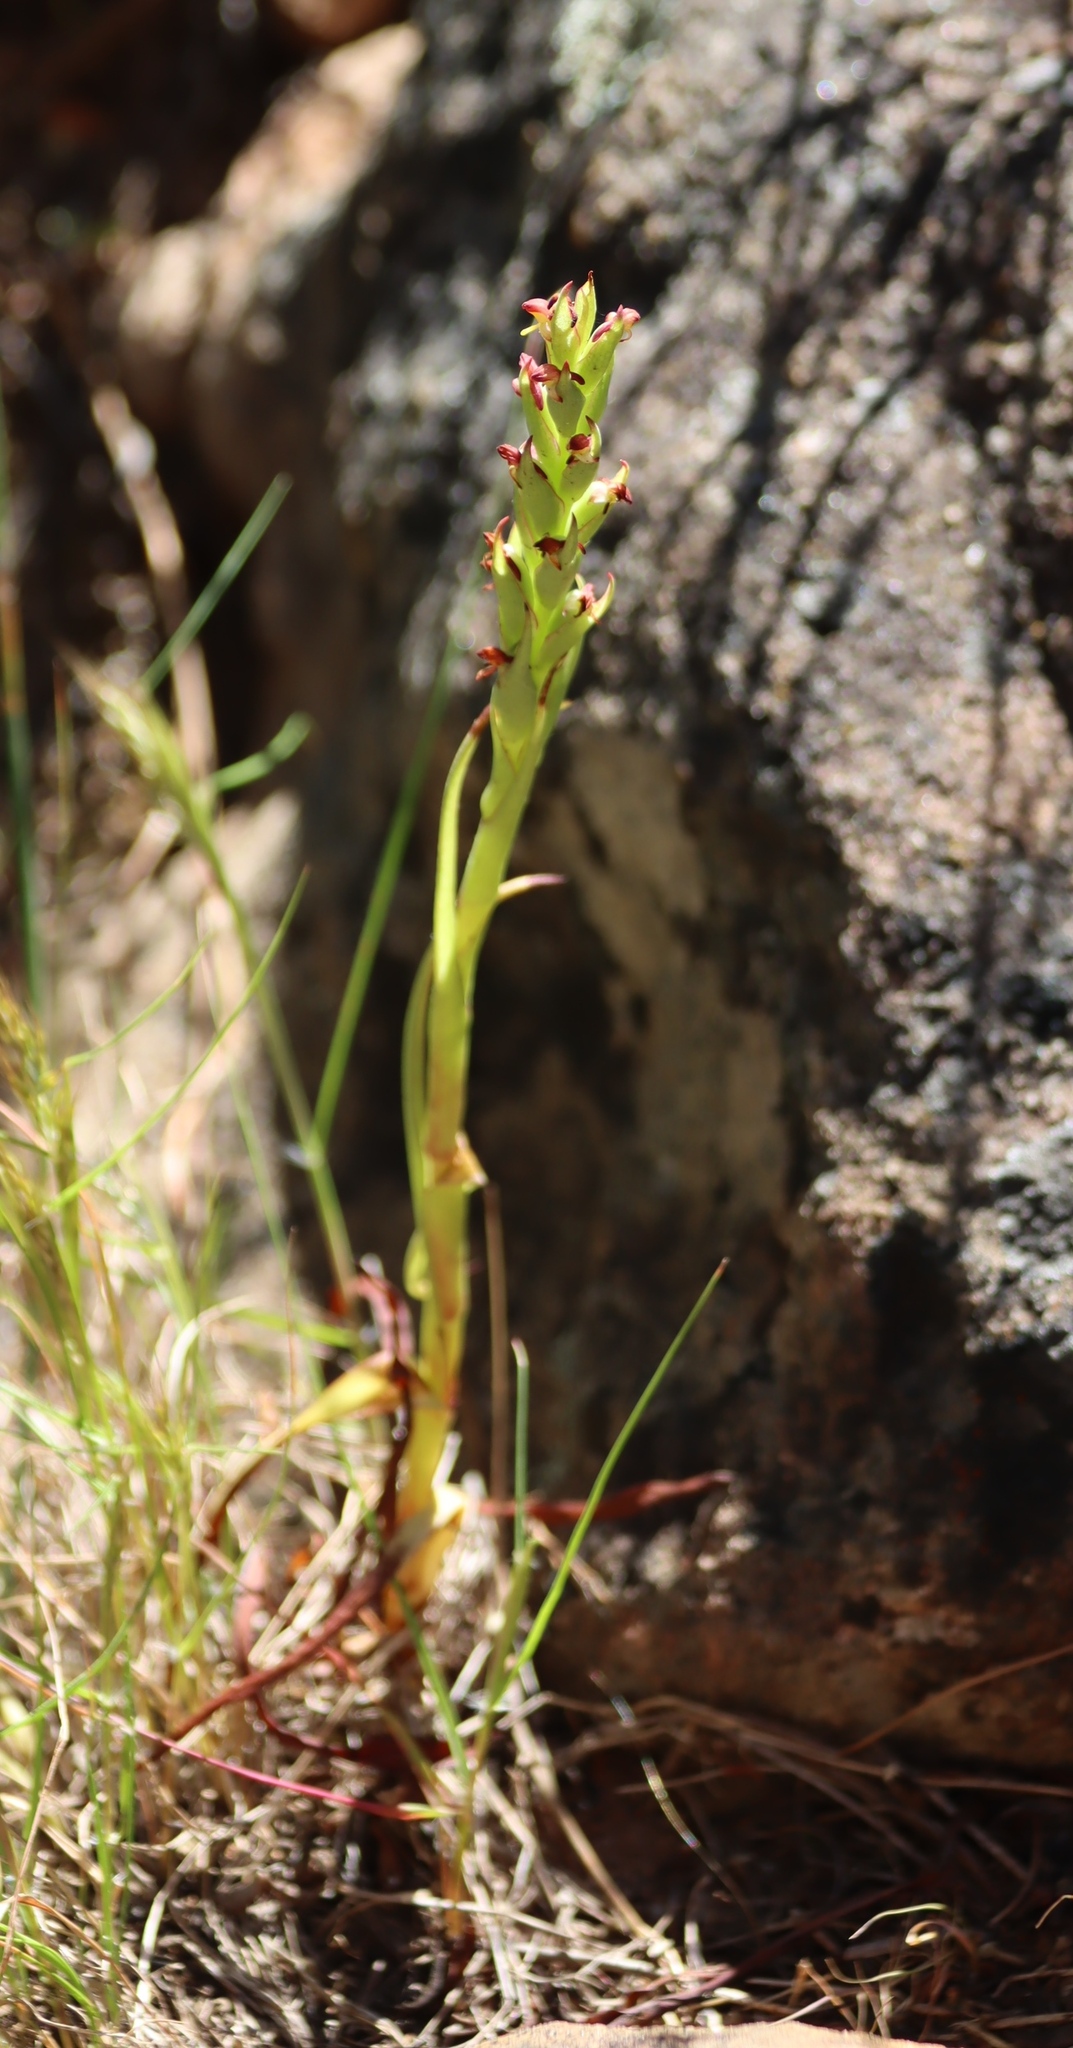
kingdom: Plantae
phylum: Tracheophyta
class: Liliopsida
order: Asparagales
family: Orchidaceae
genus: Disa
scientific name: Disa bracteata
